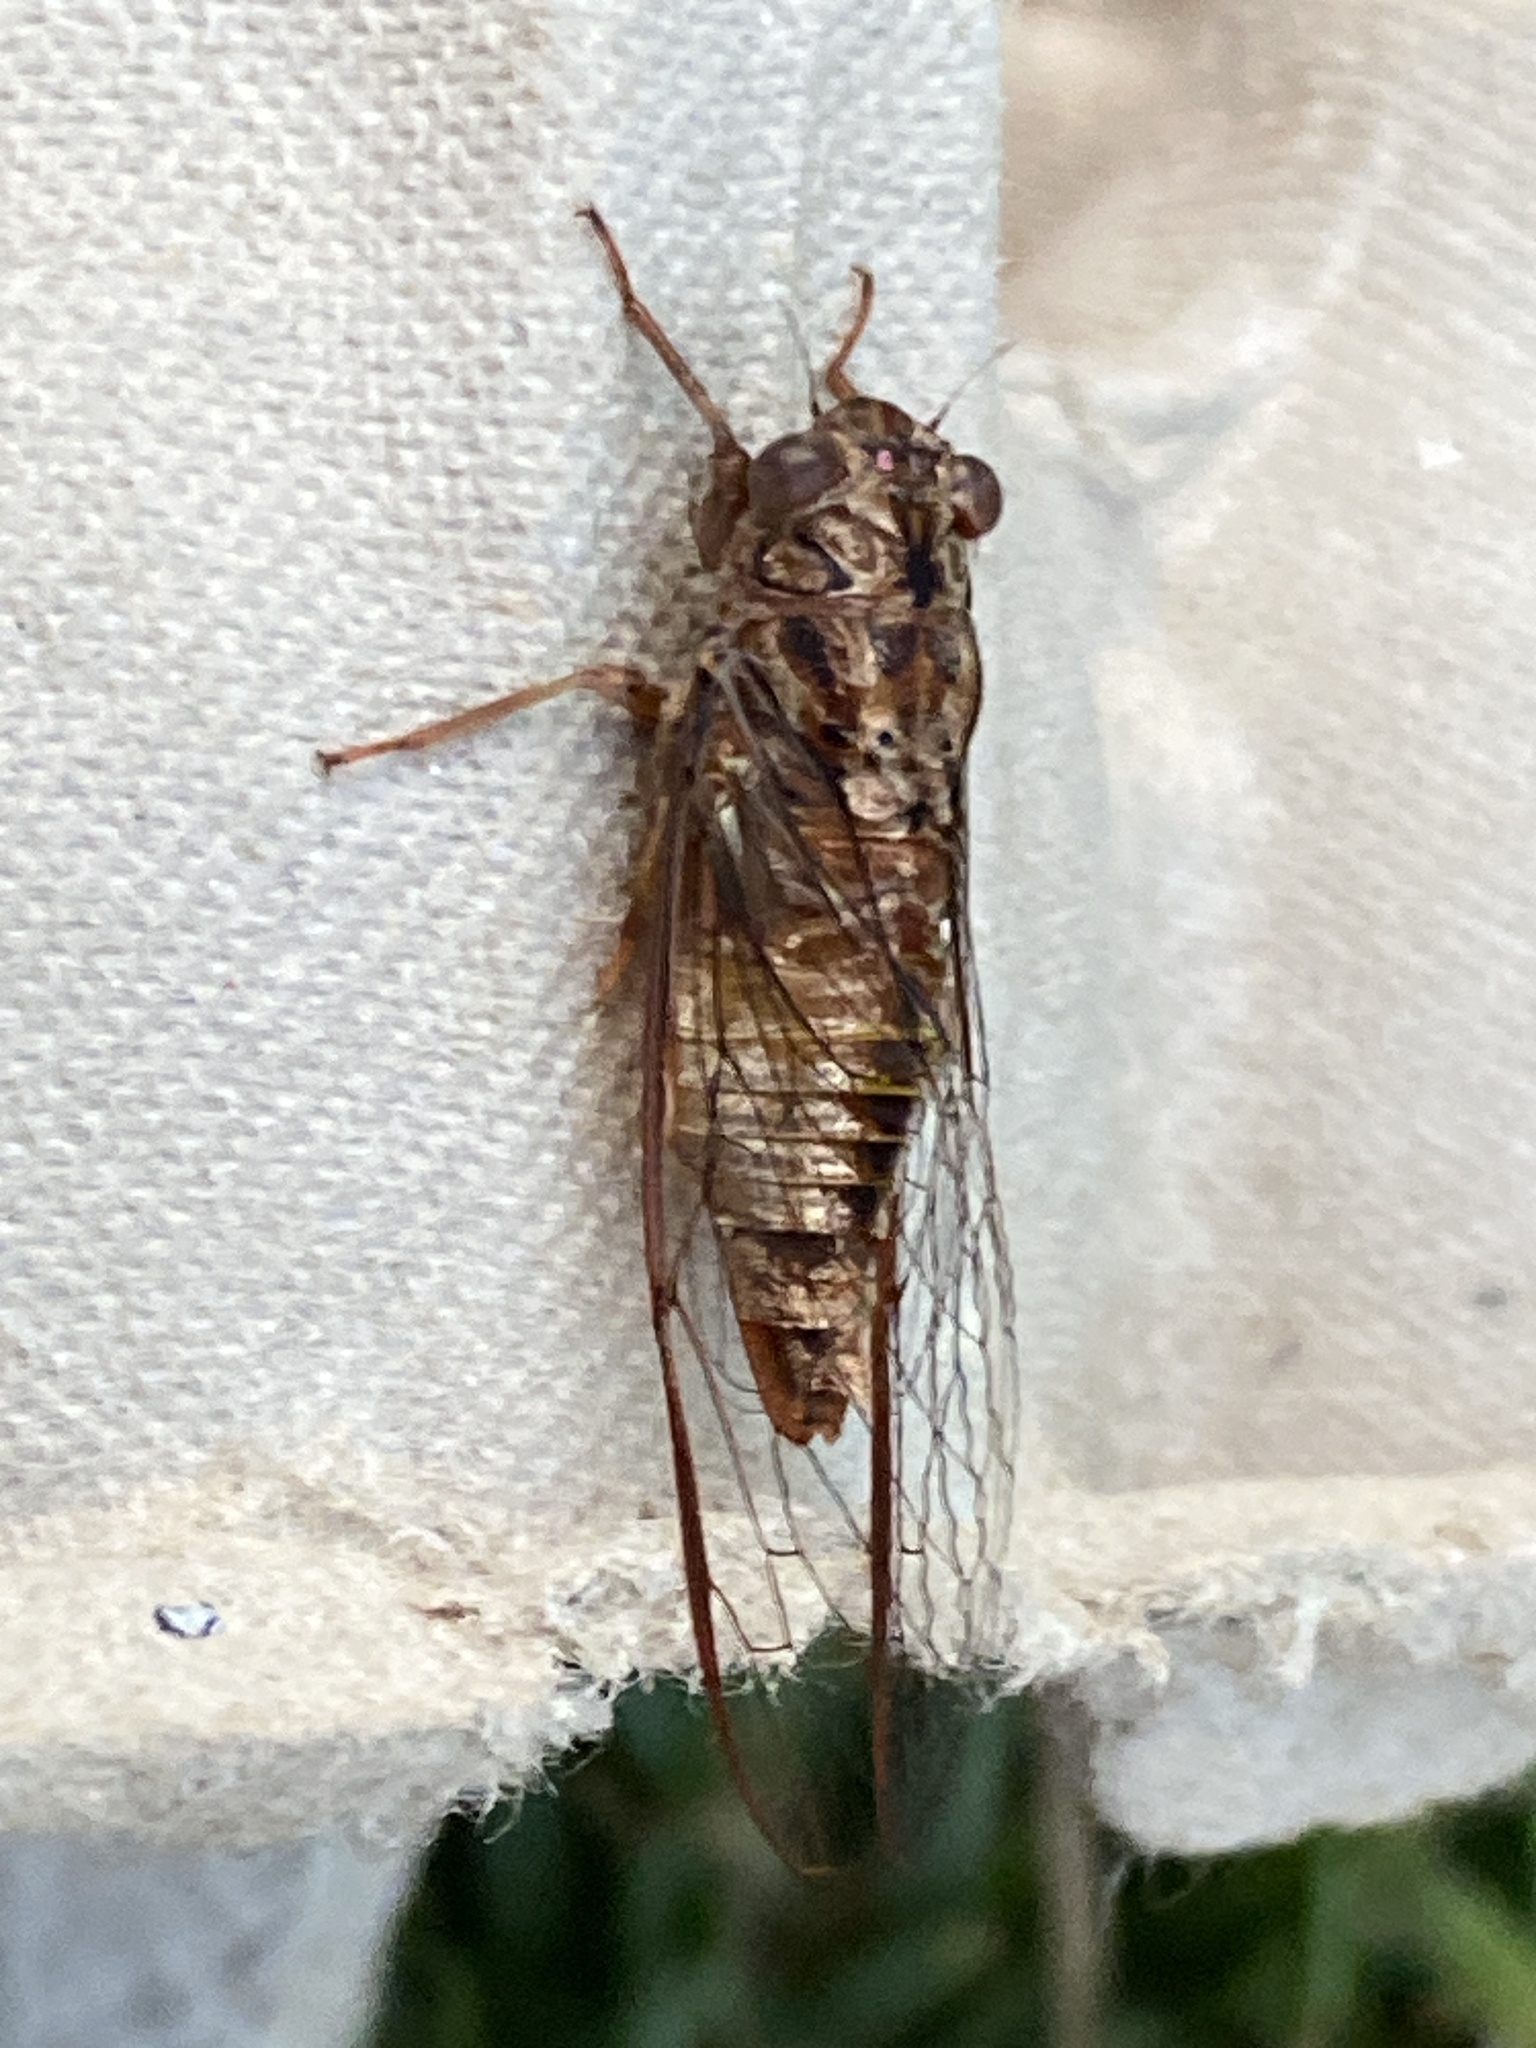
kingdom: Animalia
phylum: Arthropoda
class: Insecta
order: Hemiptera
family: Cicadidae
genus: Telmapsalta
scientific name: Telmapsalta hackeri
